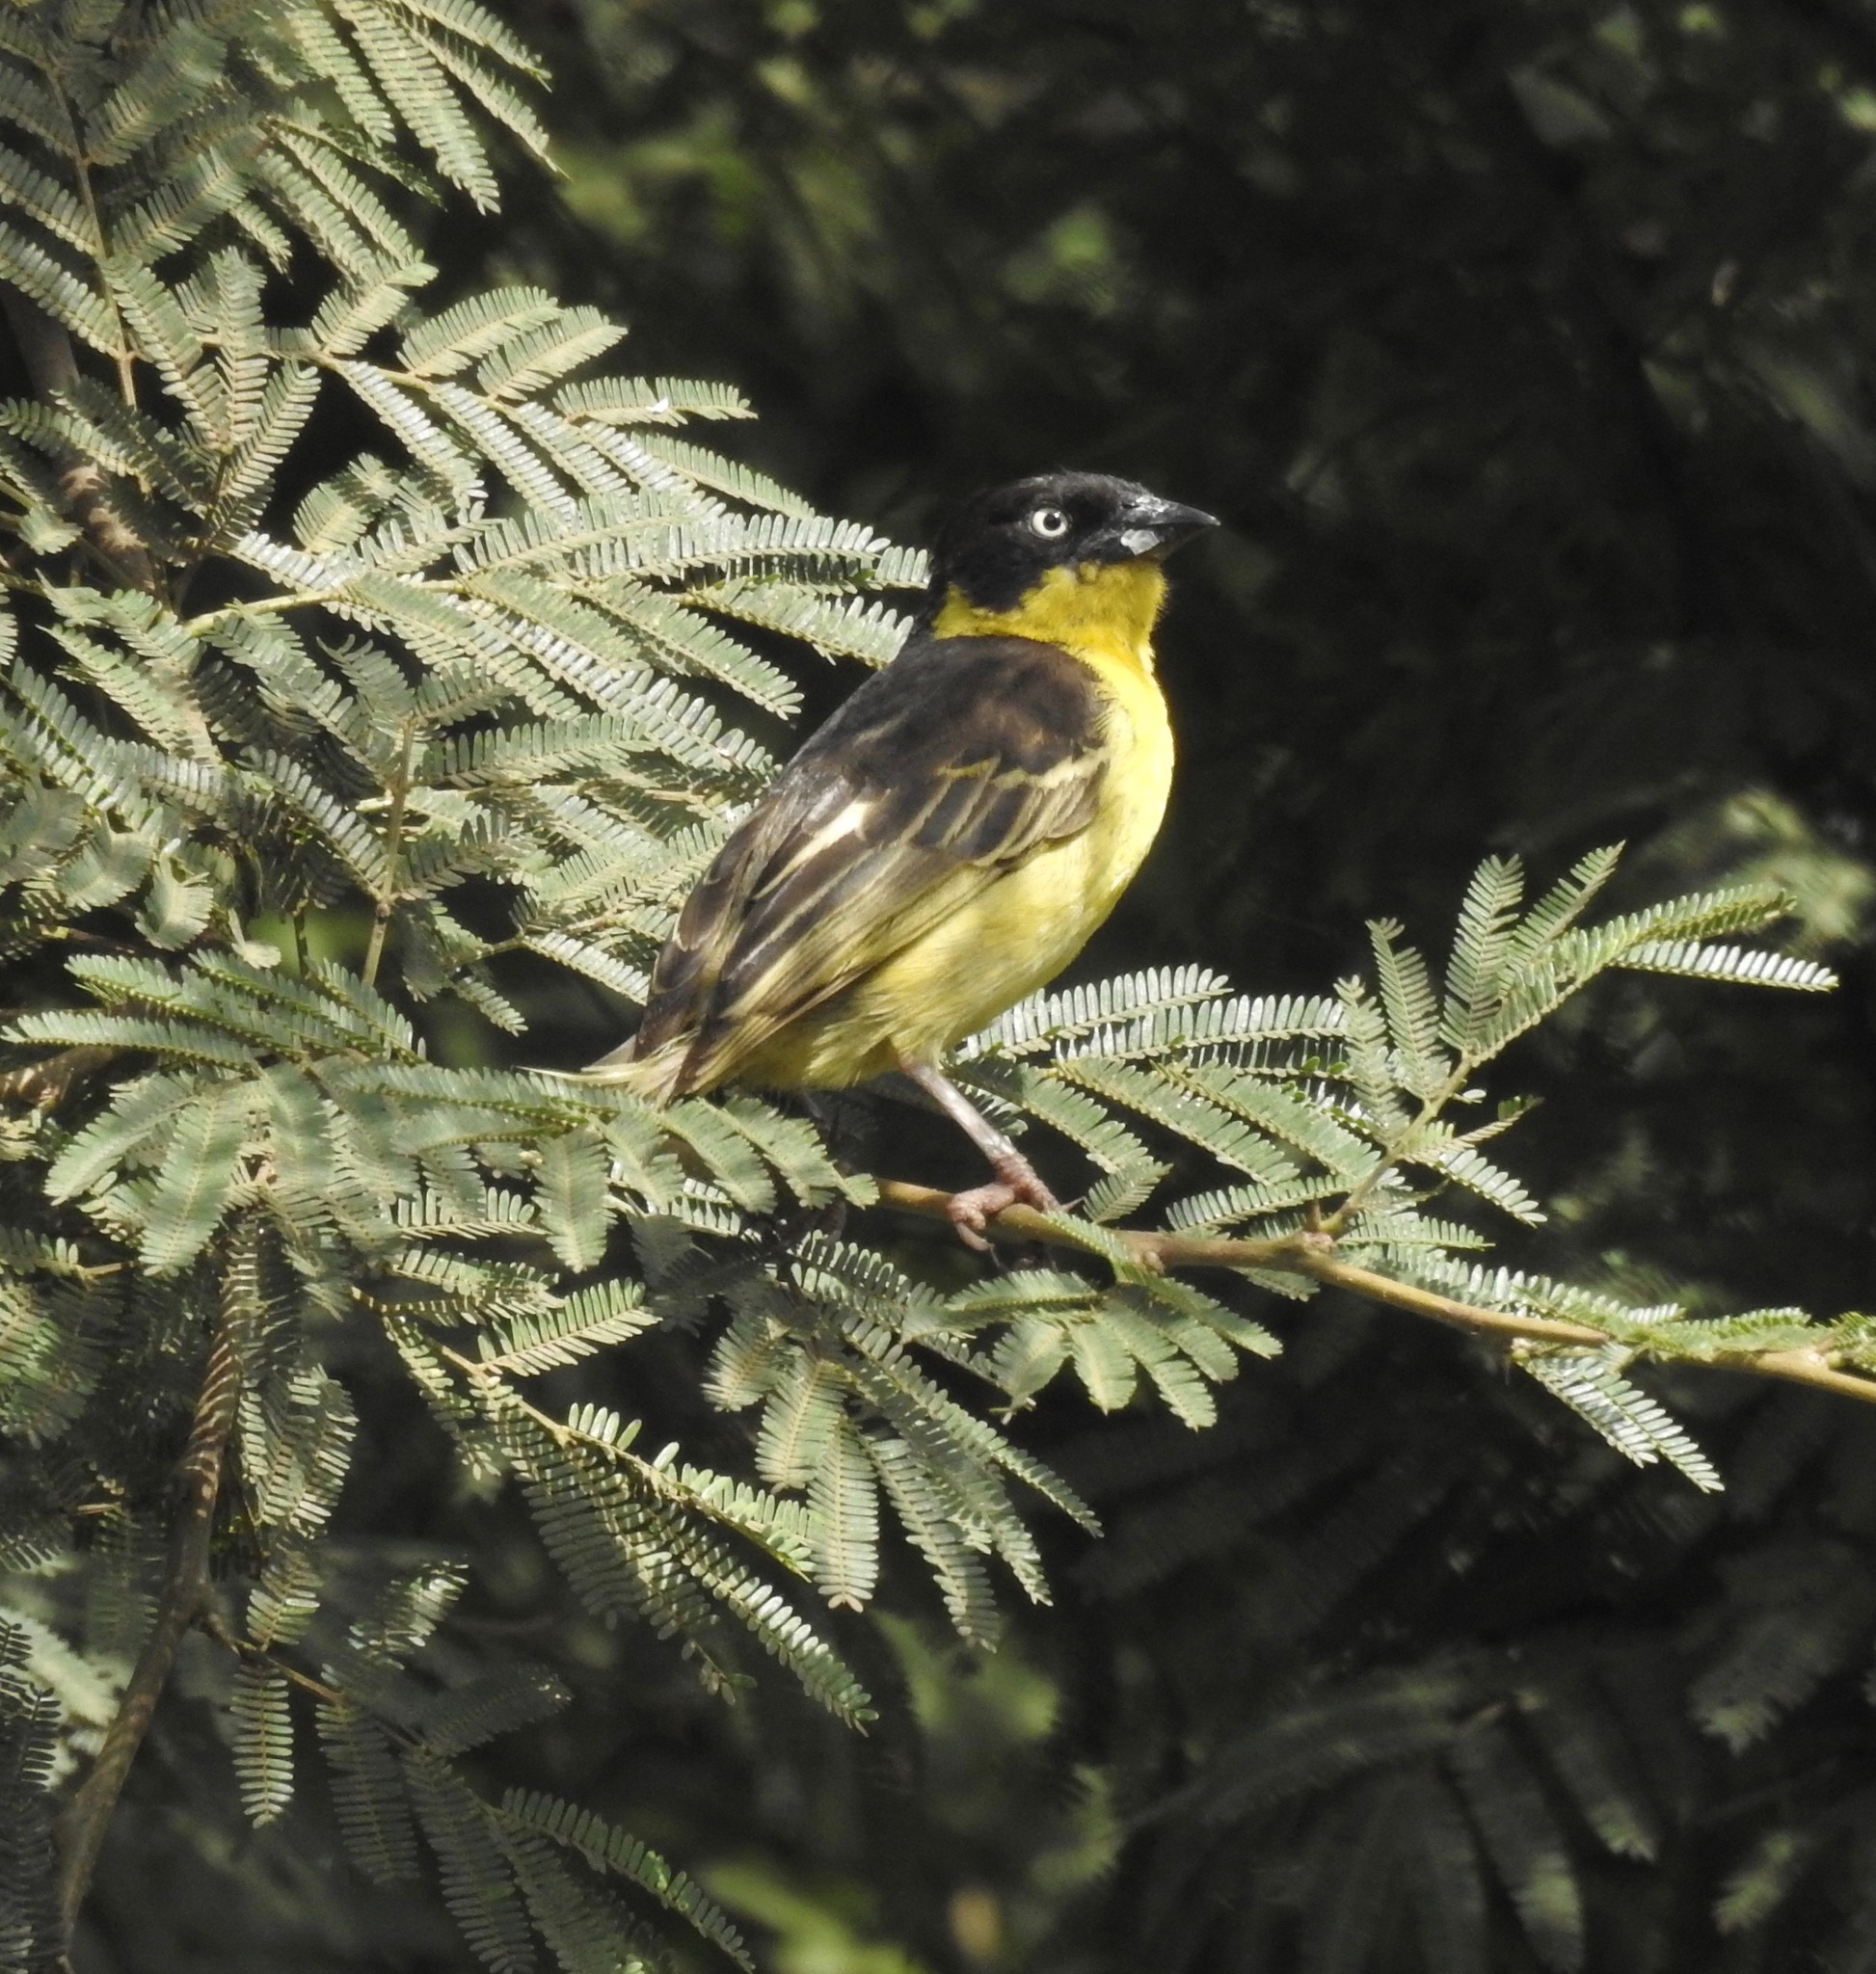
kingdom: Animalia
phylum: Chordata
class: Aves
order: Passeriformes
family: Ploceidae
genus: Ploceus
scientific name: Ploceus baglafecht
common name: Baglafecht weaver
